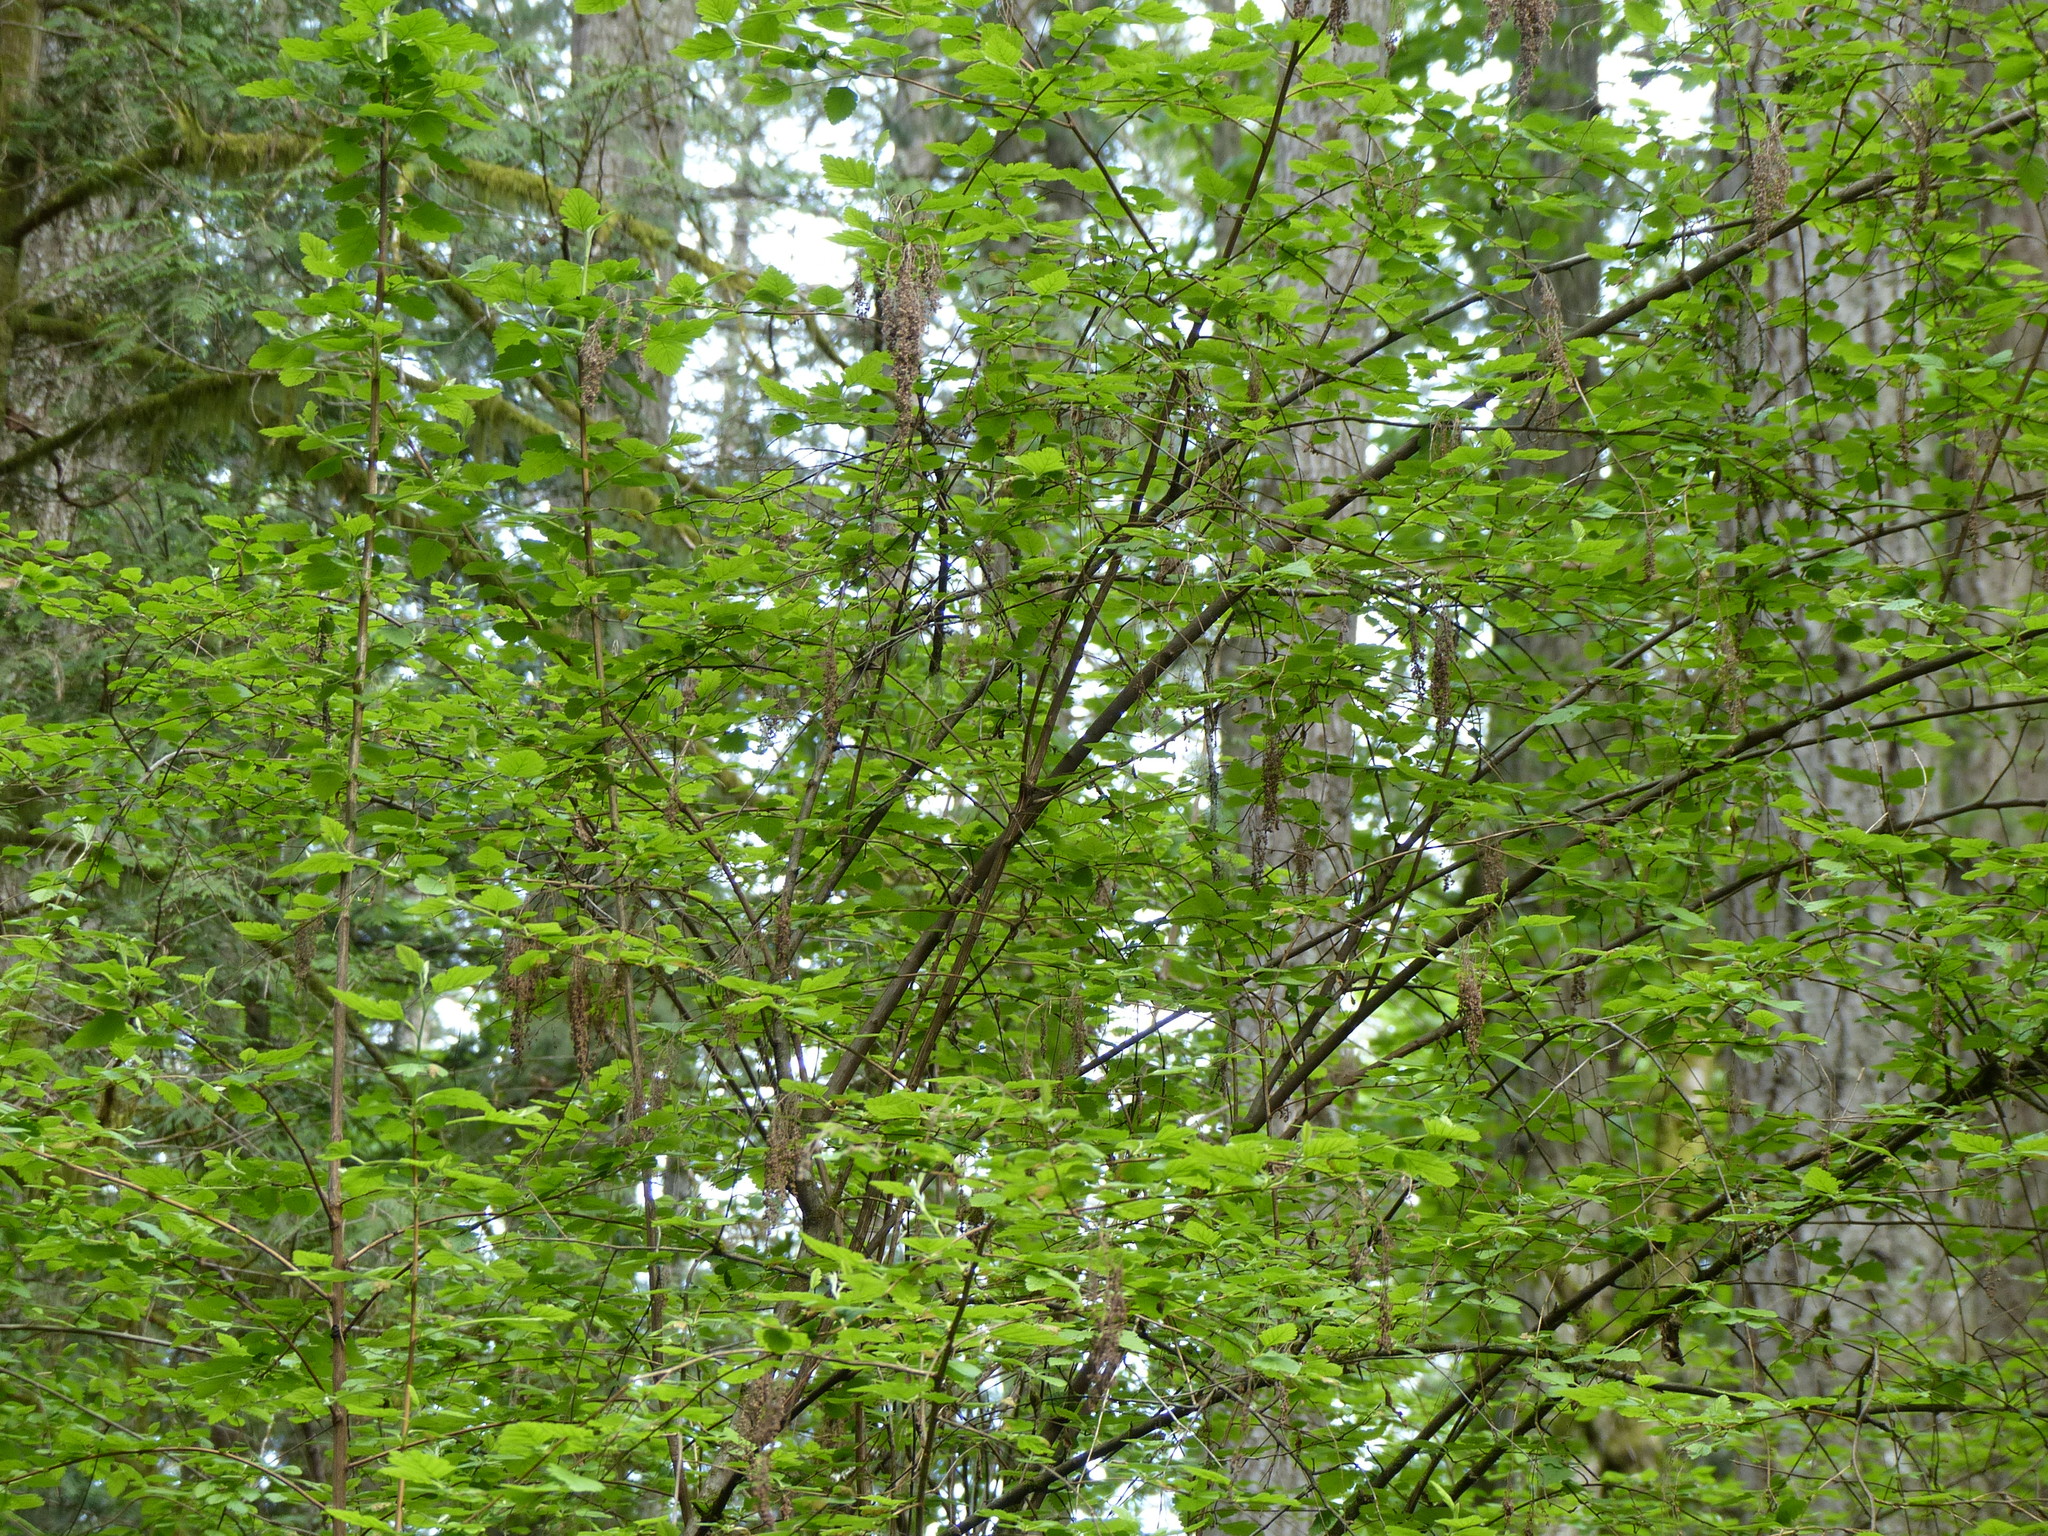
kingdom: Plantae
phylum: Tracheophyta
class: Magnoliopsida
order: Rosales
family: Rosaceae
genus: Holodiscus
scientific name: Holodiscus discolor
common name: Oceanspray
